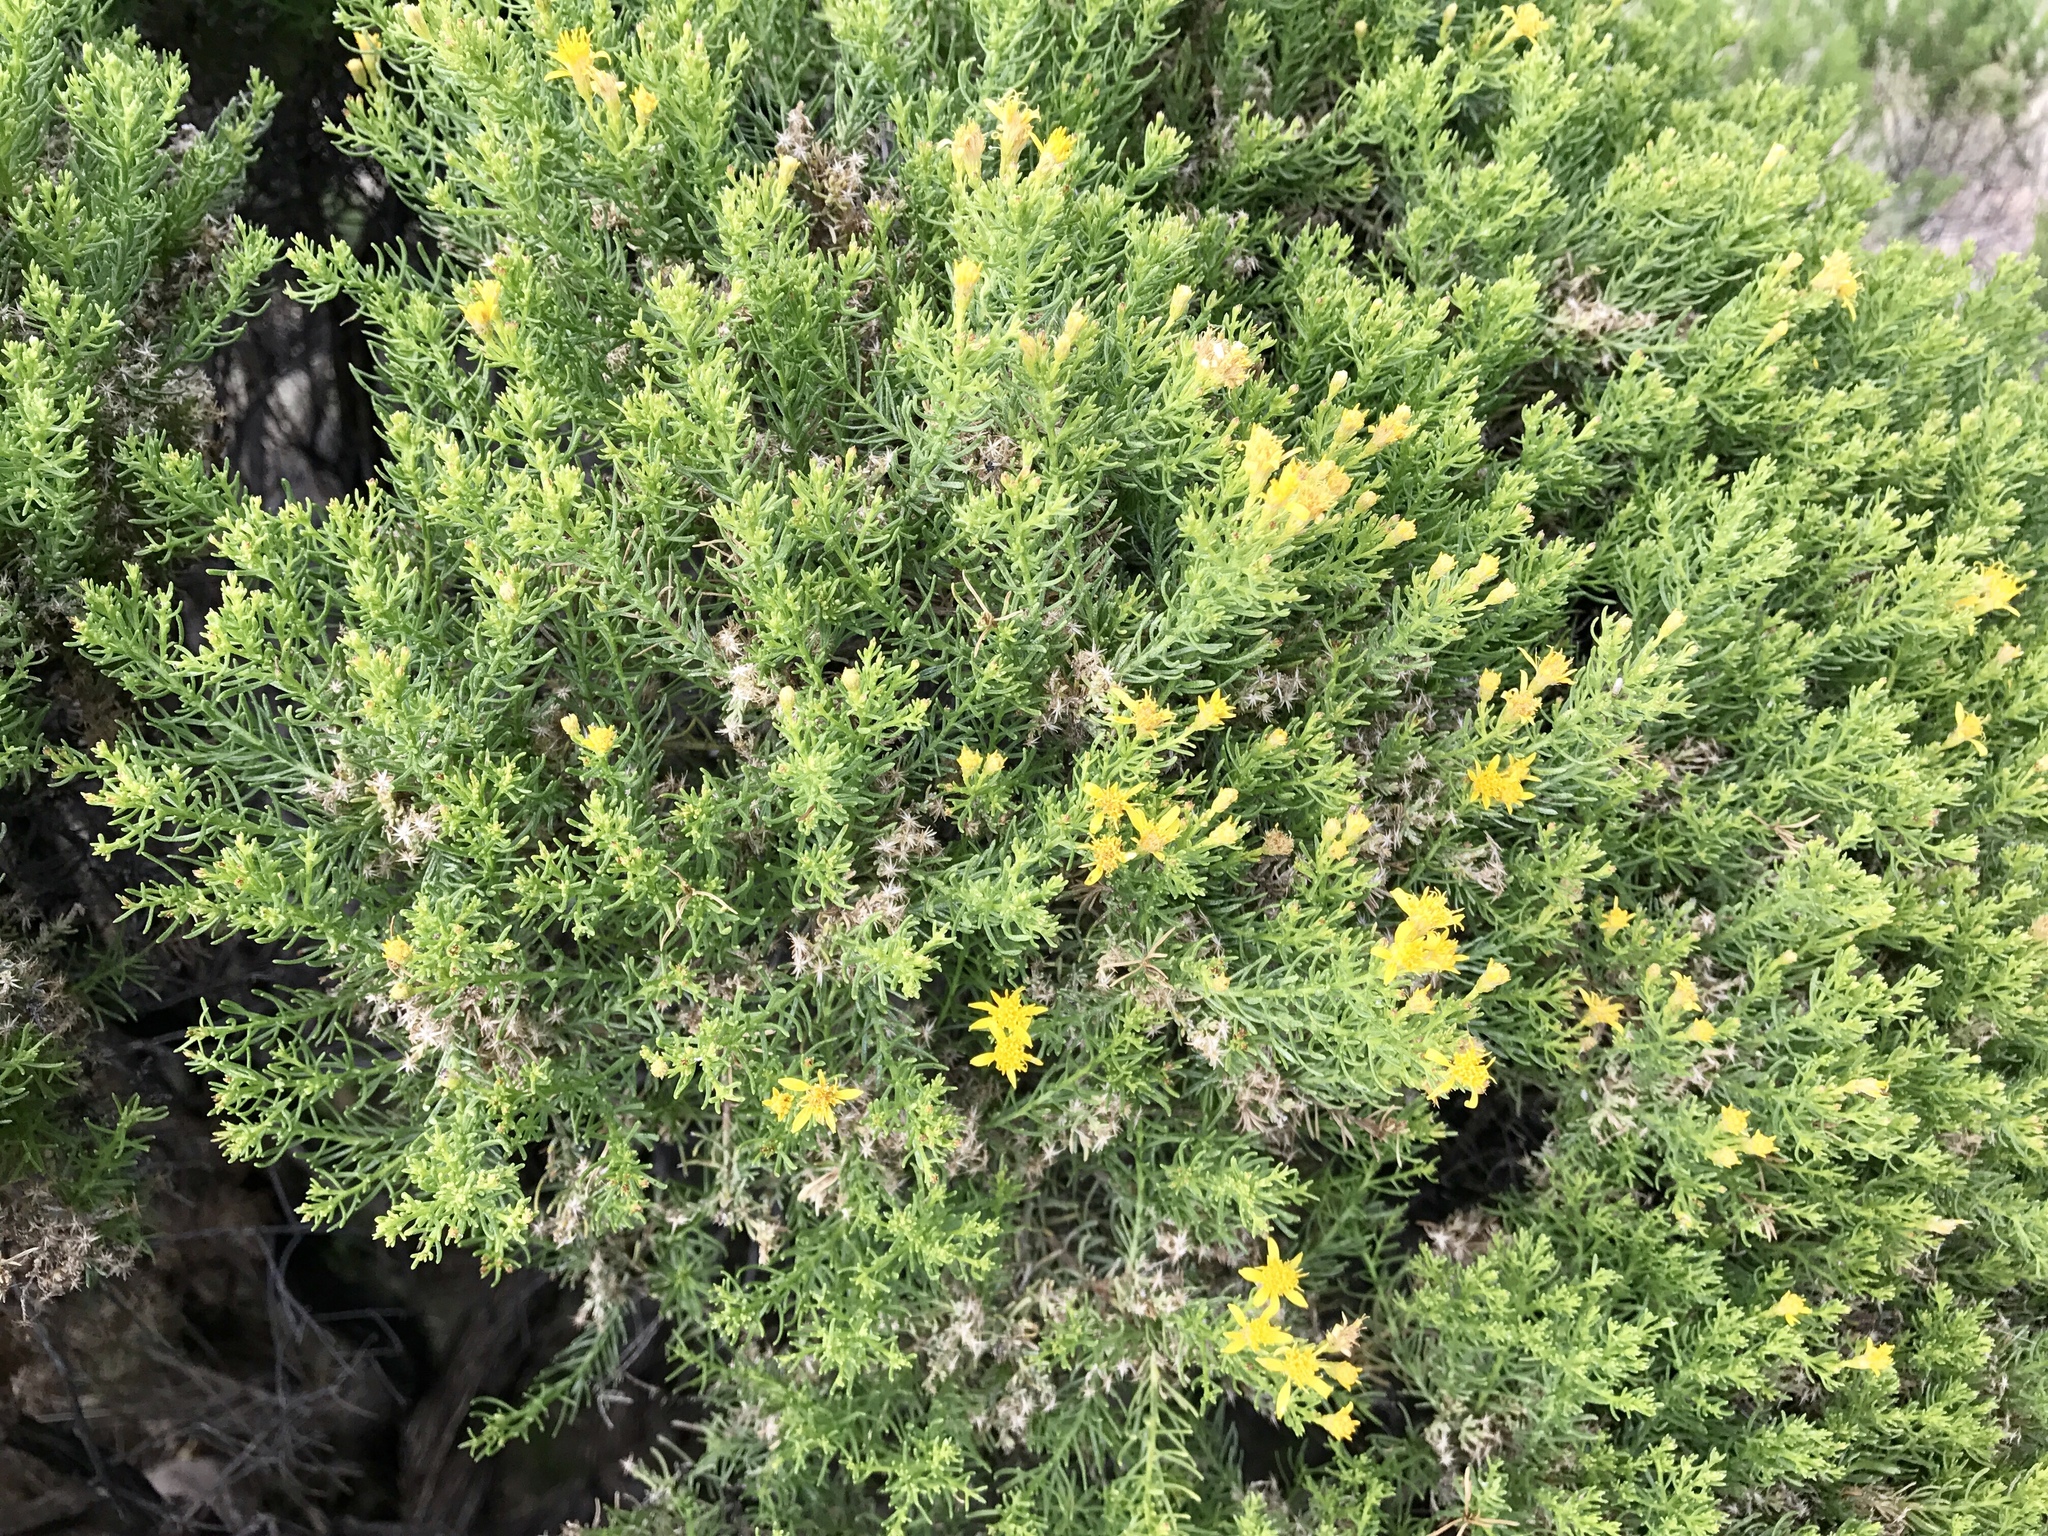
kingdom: Plantae
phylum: Tracheophyta
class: Magnoliopsida
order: Asterales
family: Asteraceae
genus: Ericameria
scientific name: Ericameria laricifolia
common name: Turpentine-bush
